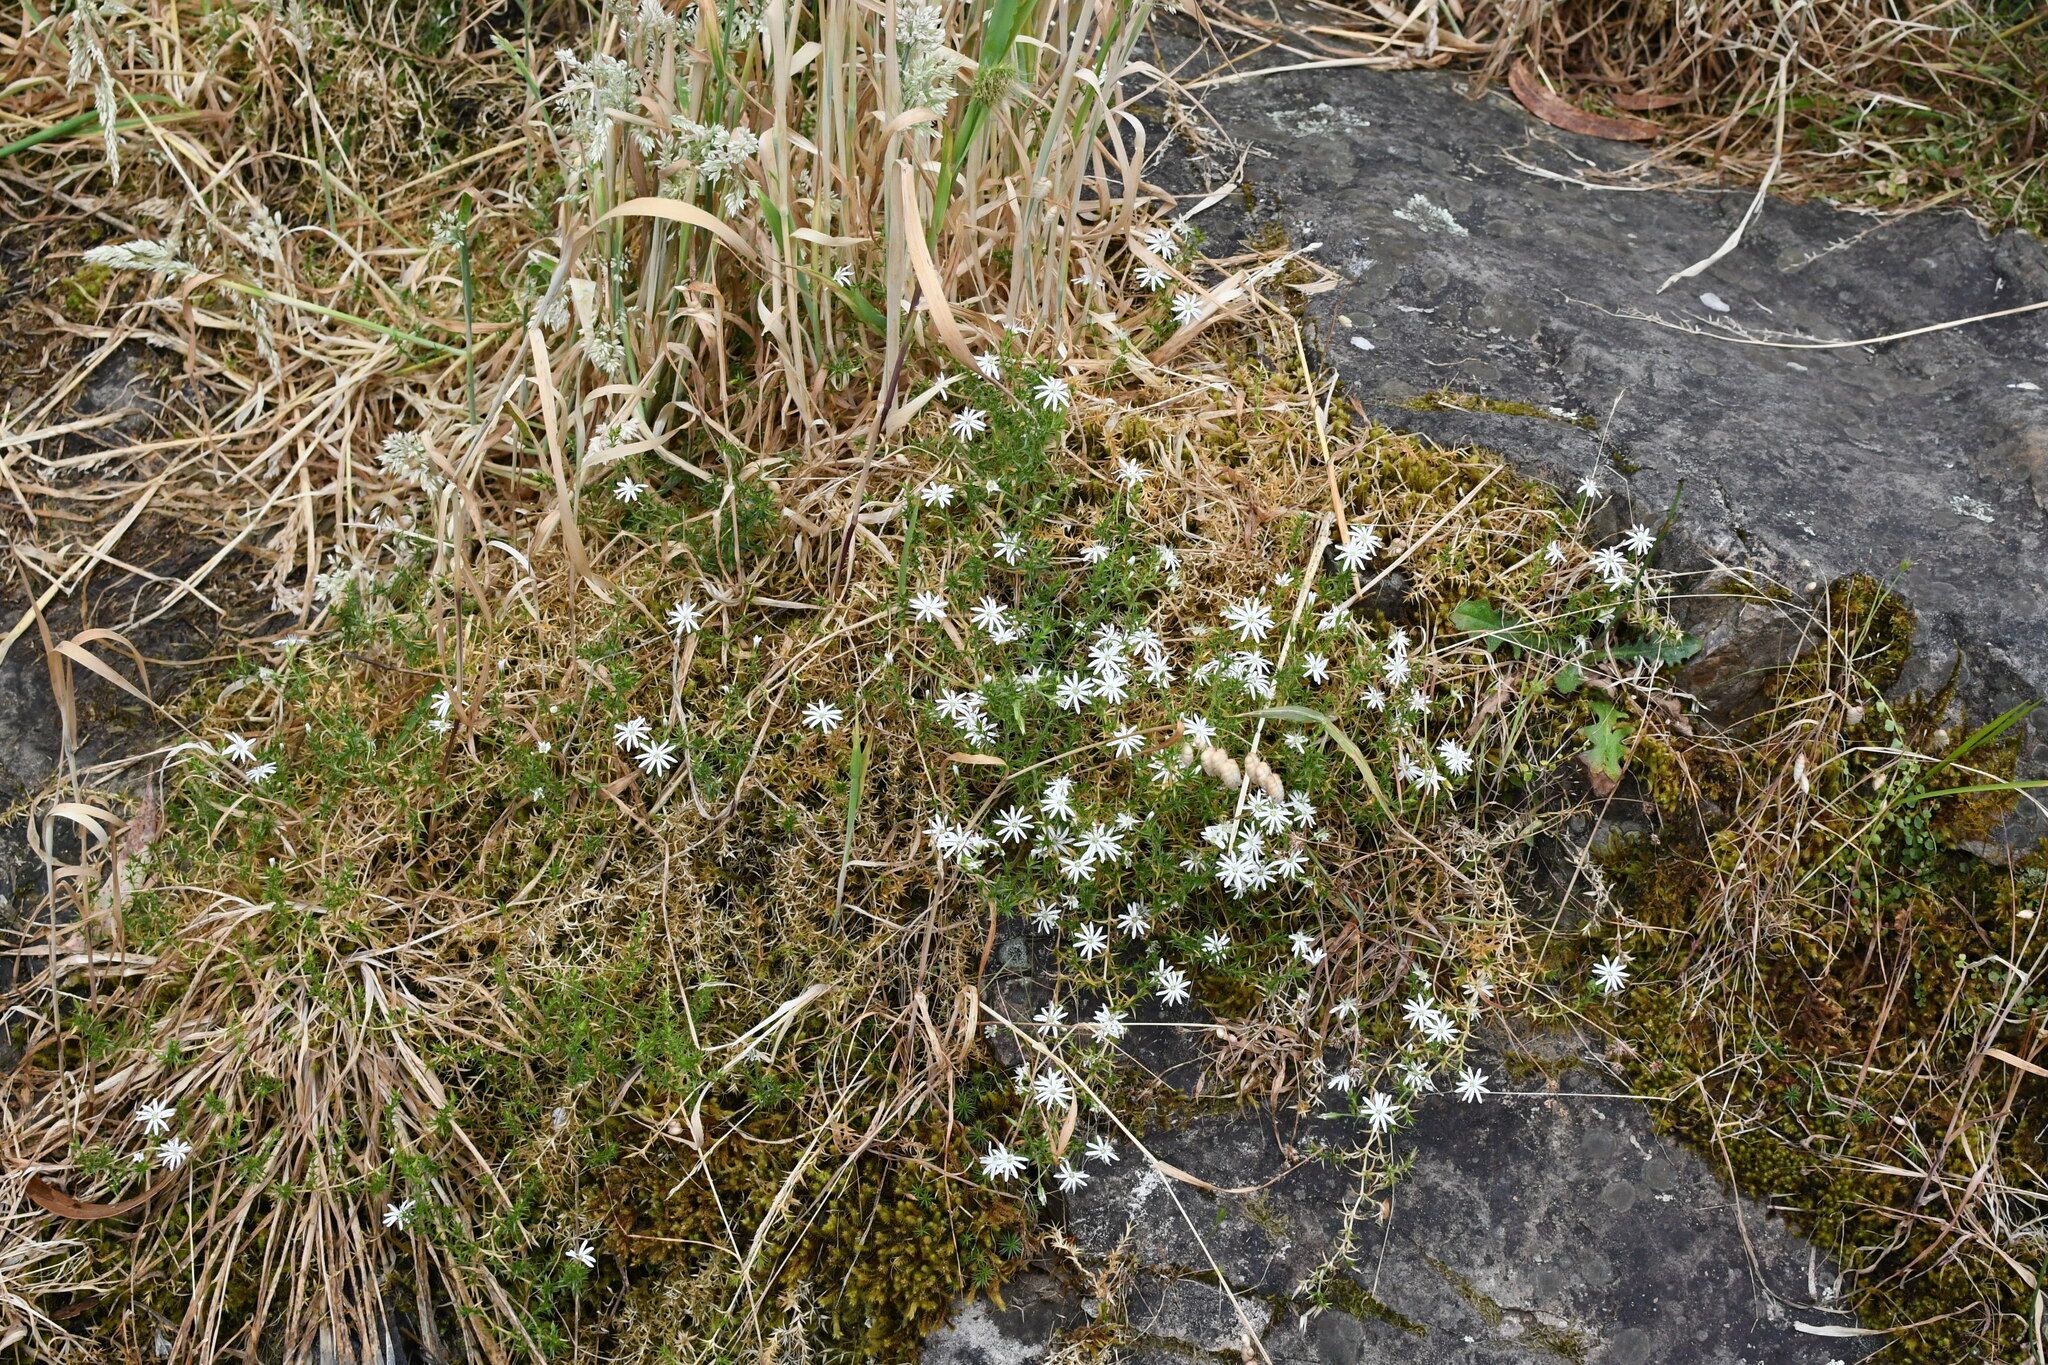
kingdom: Plantae
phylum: Tracheophyta
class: Magnoliopsida
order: Caryophyllales
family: Caryophyllaceae
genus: Stellaria
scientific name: Stellaria pungens
